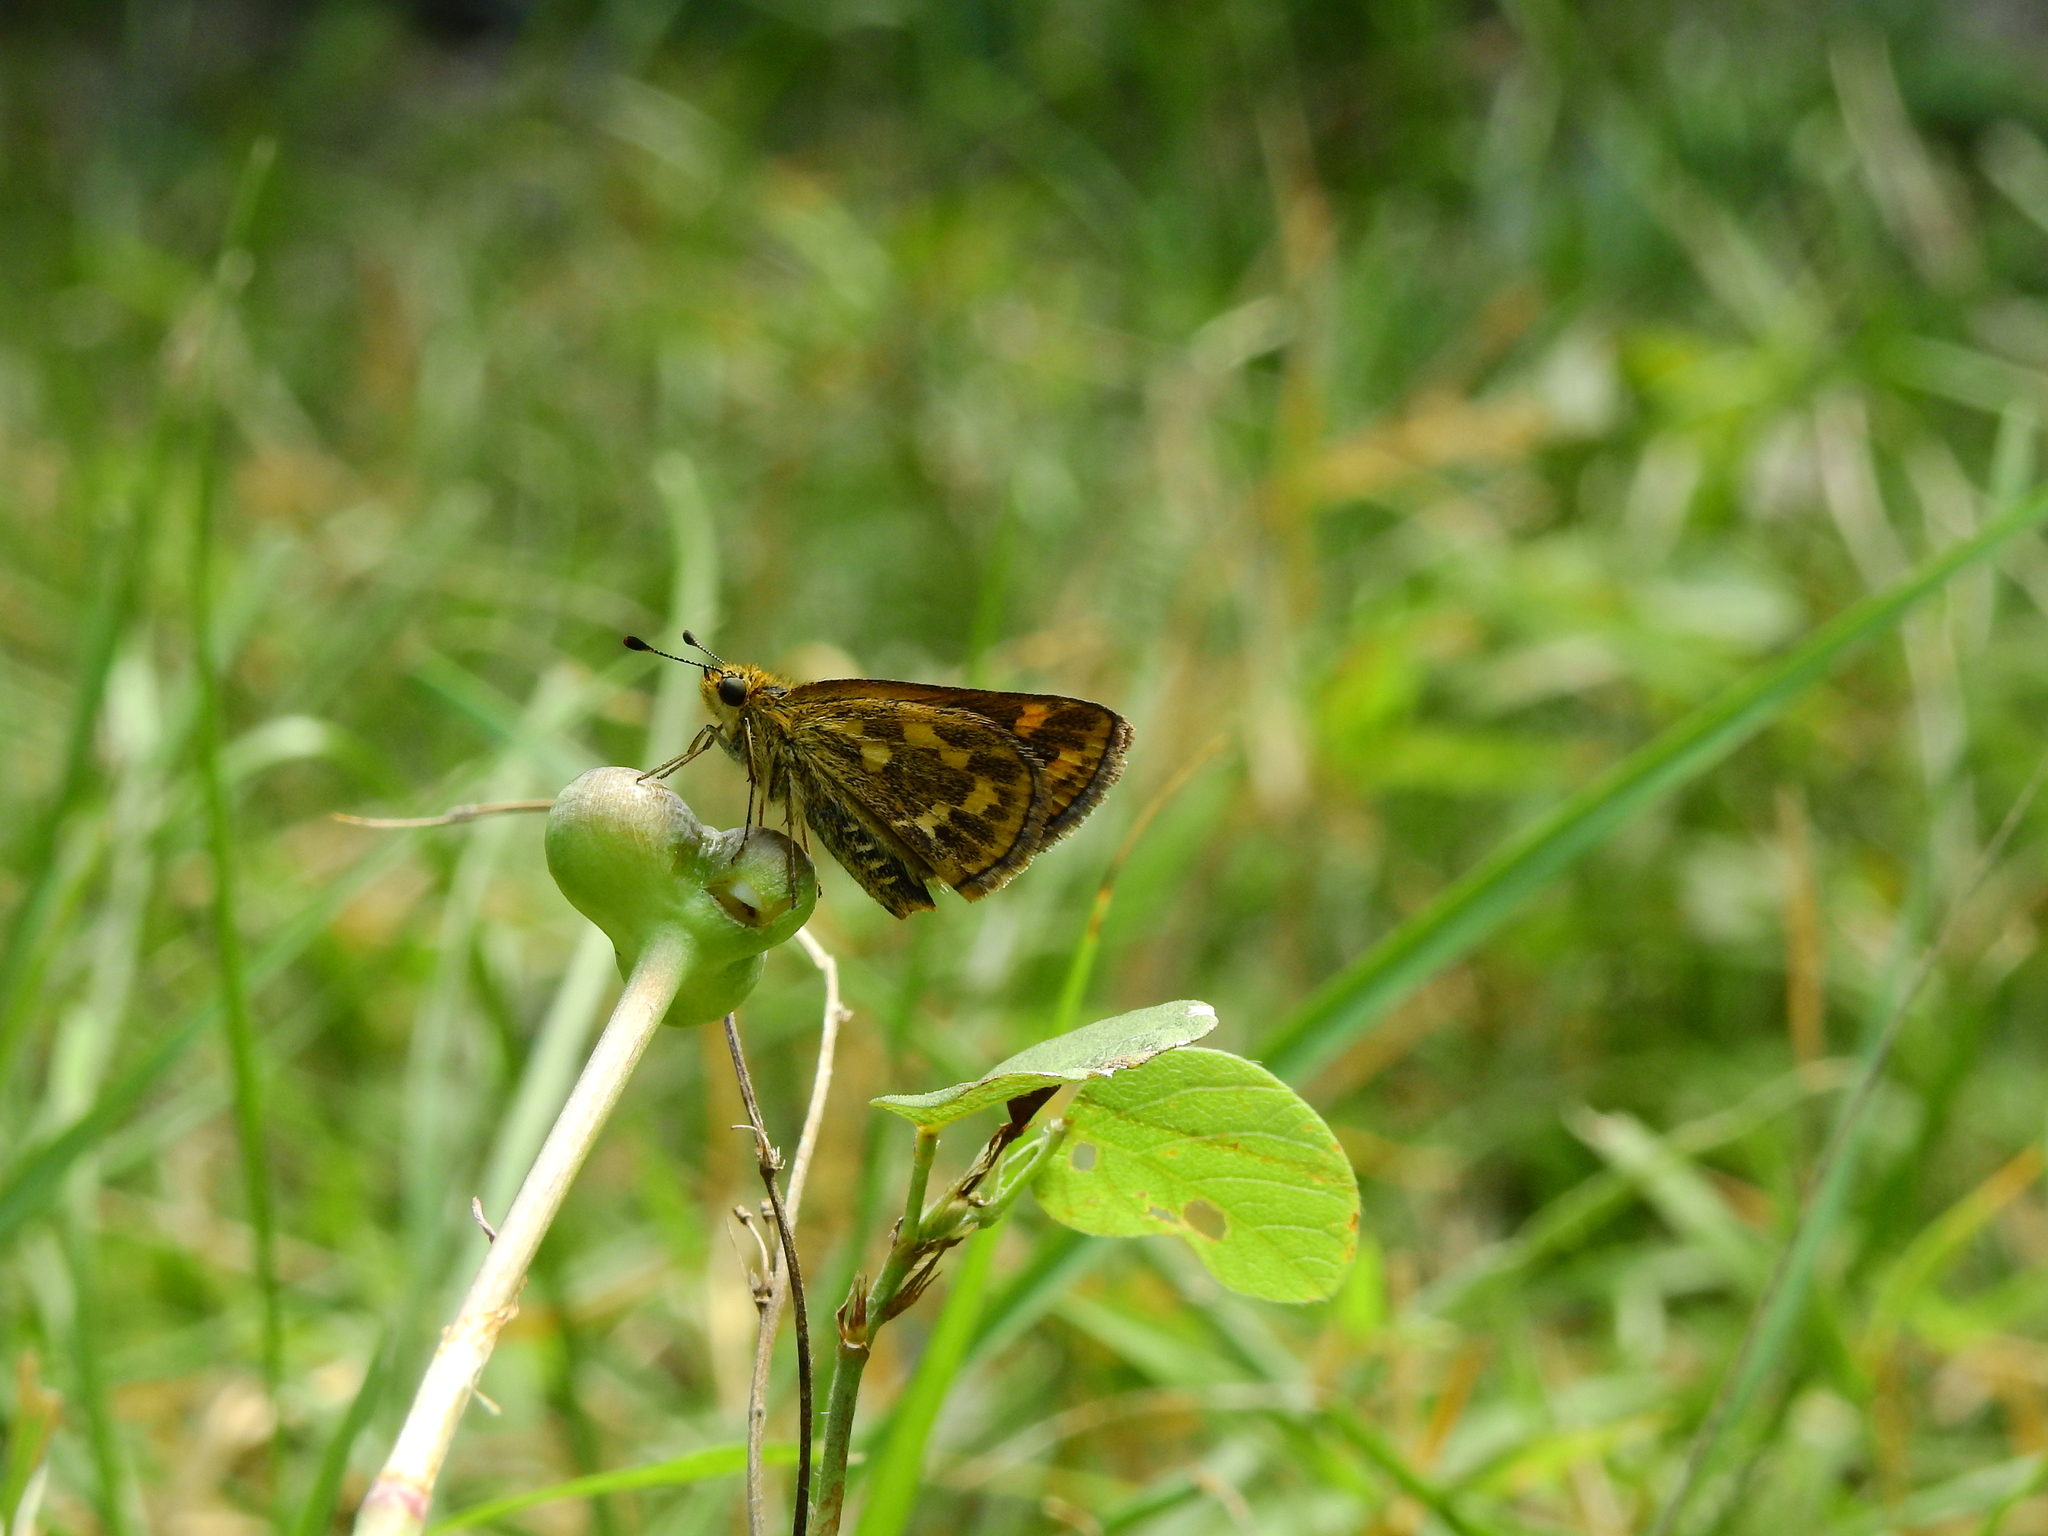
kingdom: Animalia
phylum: Arthropoda
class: Insecta
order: Lepidoptera
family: Hesperiidae
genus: Taractrocera
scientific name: Taractrocera ceramas
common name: Tamil grass dart
